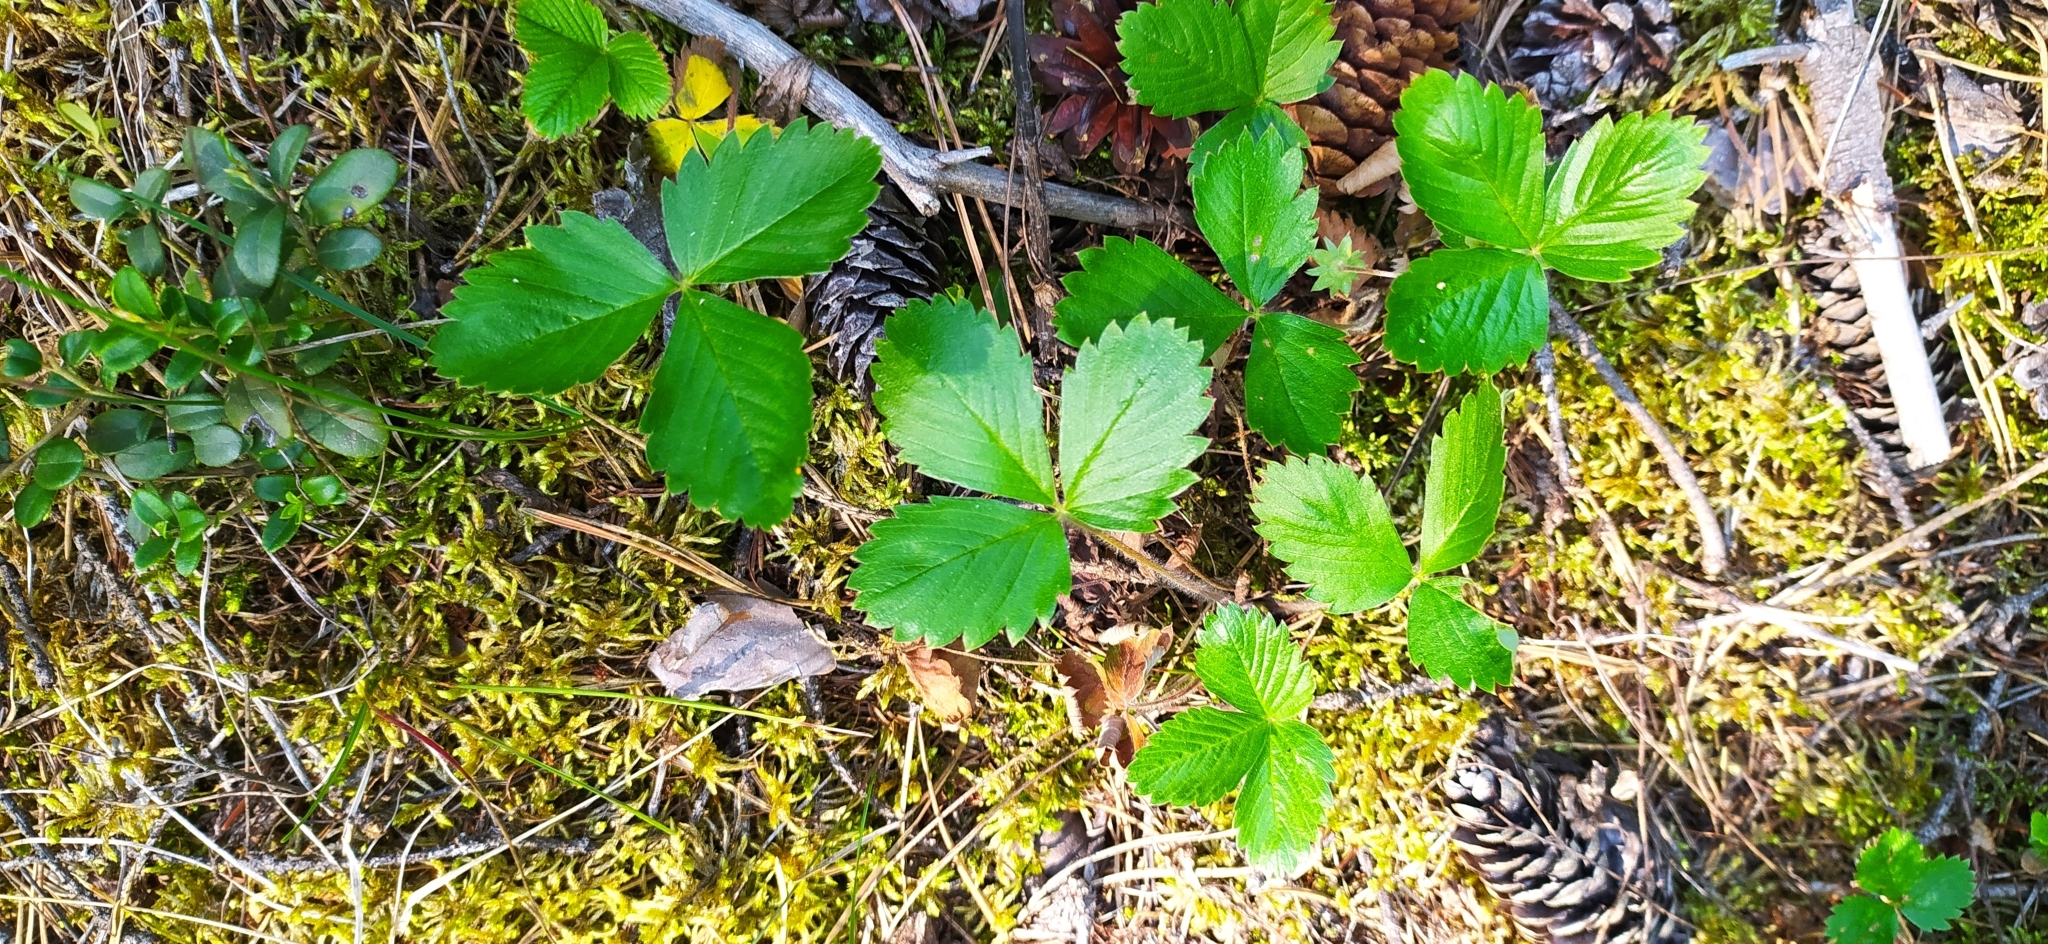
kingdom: Plantae
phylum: Tracheophyta
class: Magnoliopsida
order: Rosales
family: Rosaceae
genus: Fragaria
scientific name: Fragaria vesca
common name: Wild strawberry
